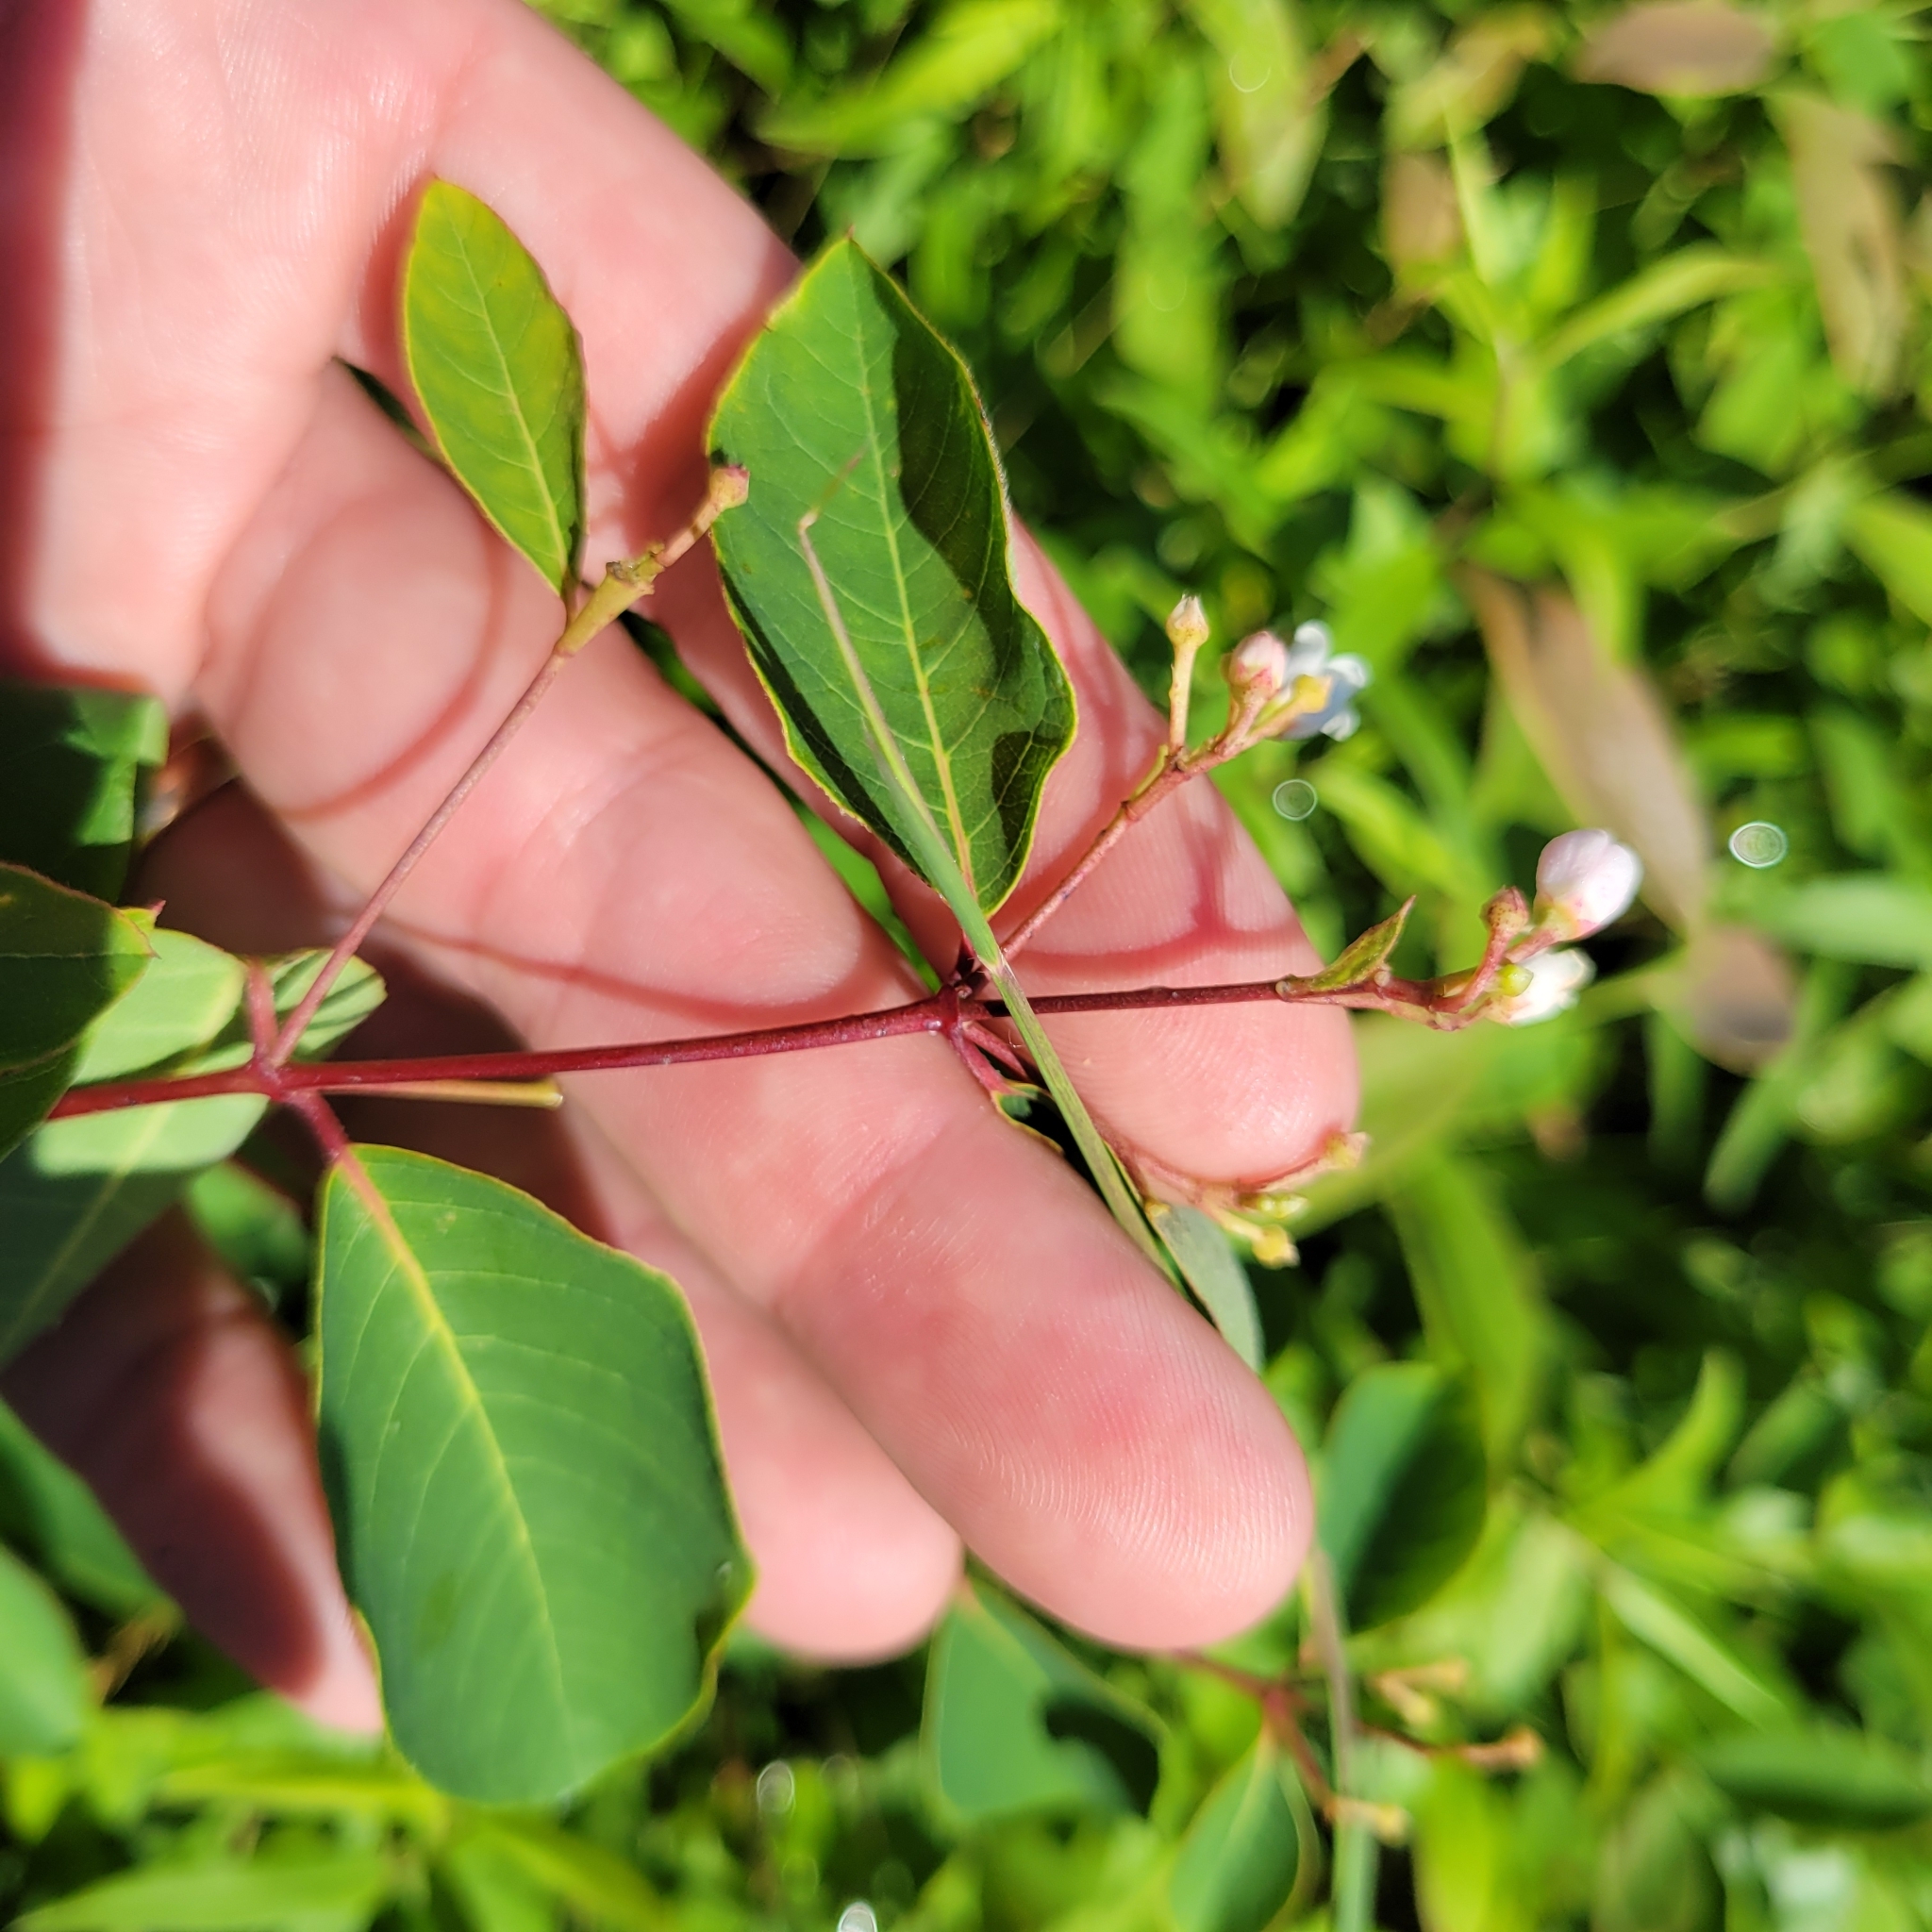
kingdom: Plantae
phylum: Tracheophyta
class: Magnoliopsida
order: Gentianales
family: Apocynaceae
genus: Apocynum
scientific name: Apocynum androsaemifolium
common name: Spreading dogbane
